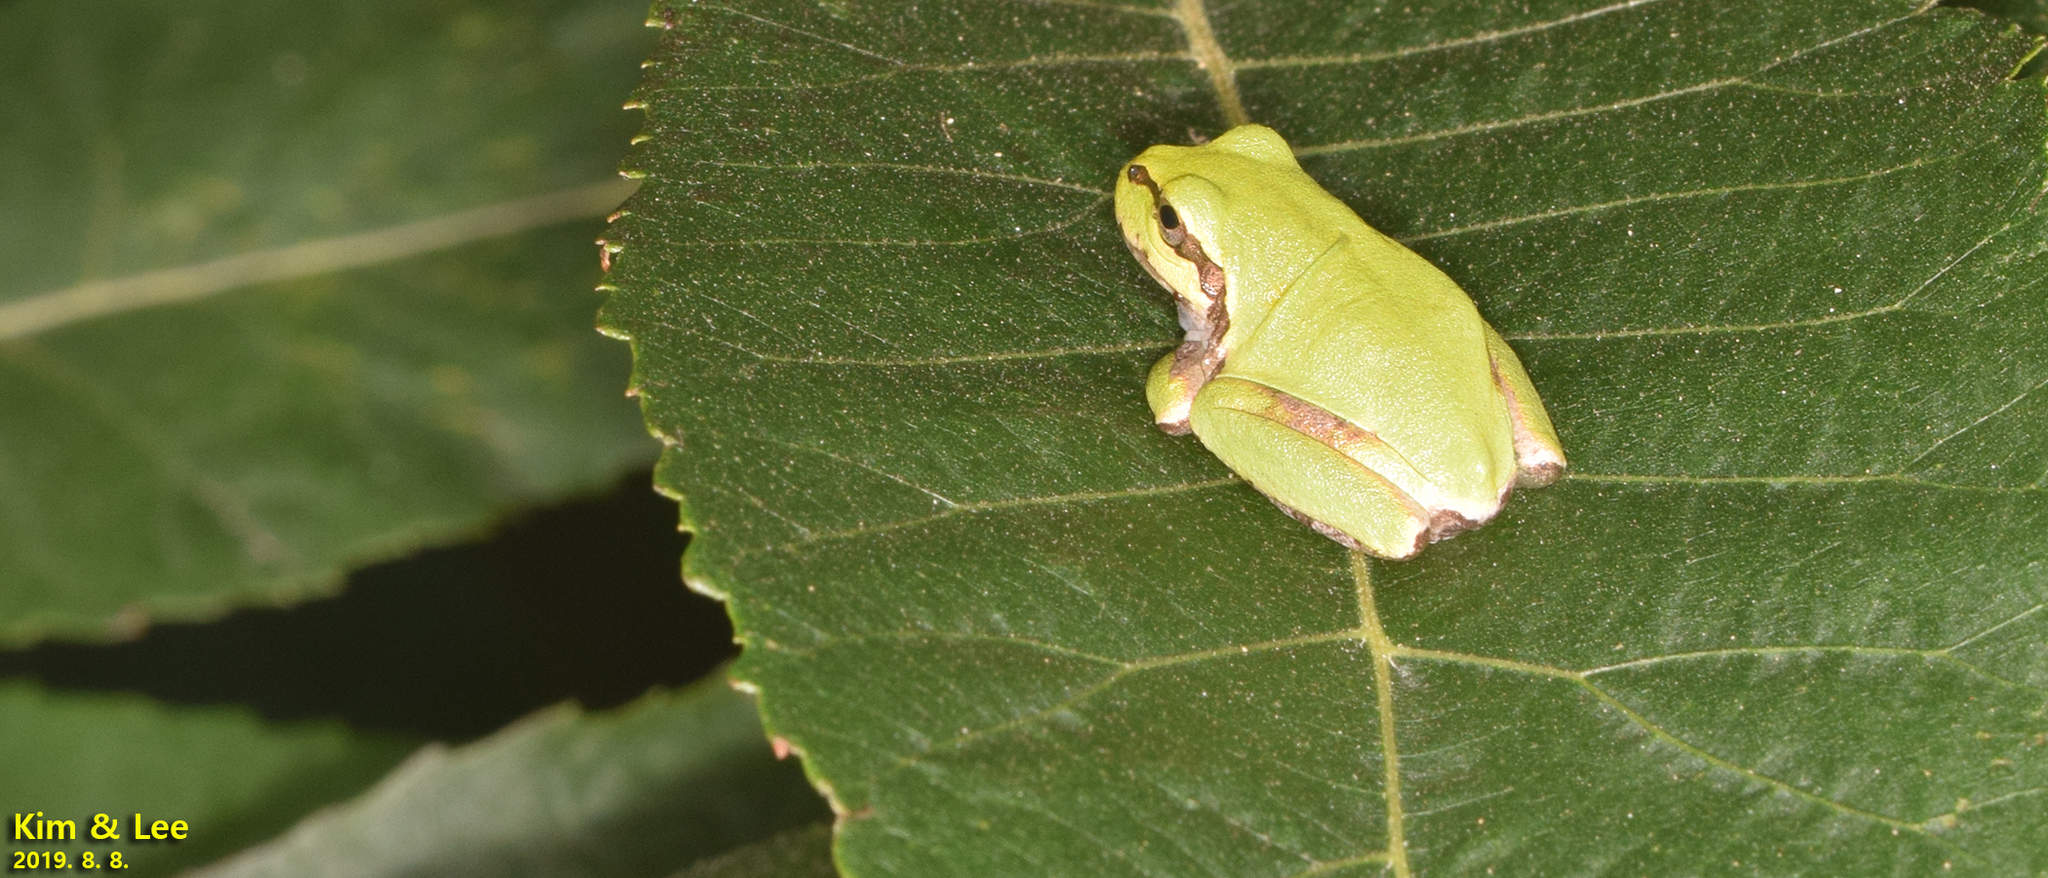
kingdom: Animalia
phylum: Chordata
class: Amphibia
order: Anura
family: Hylidae
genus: Dryophytes
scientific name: Dryophytes japonicus
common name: Japanese treefrog
